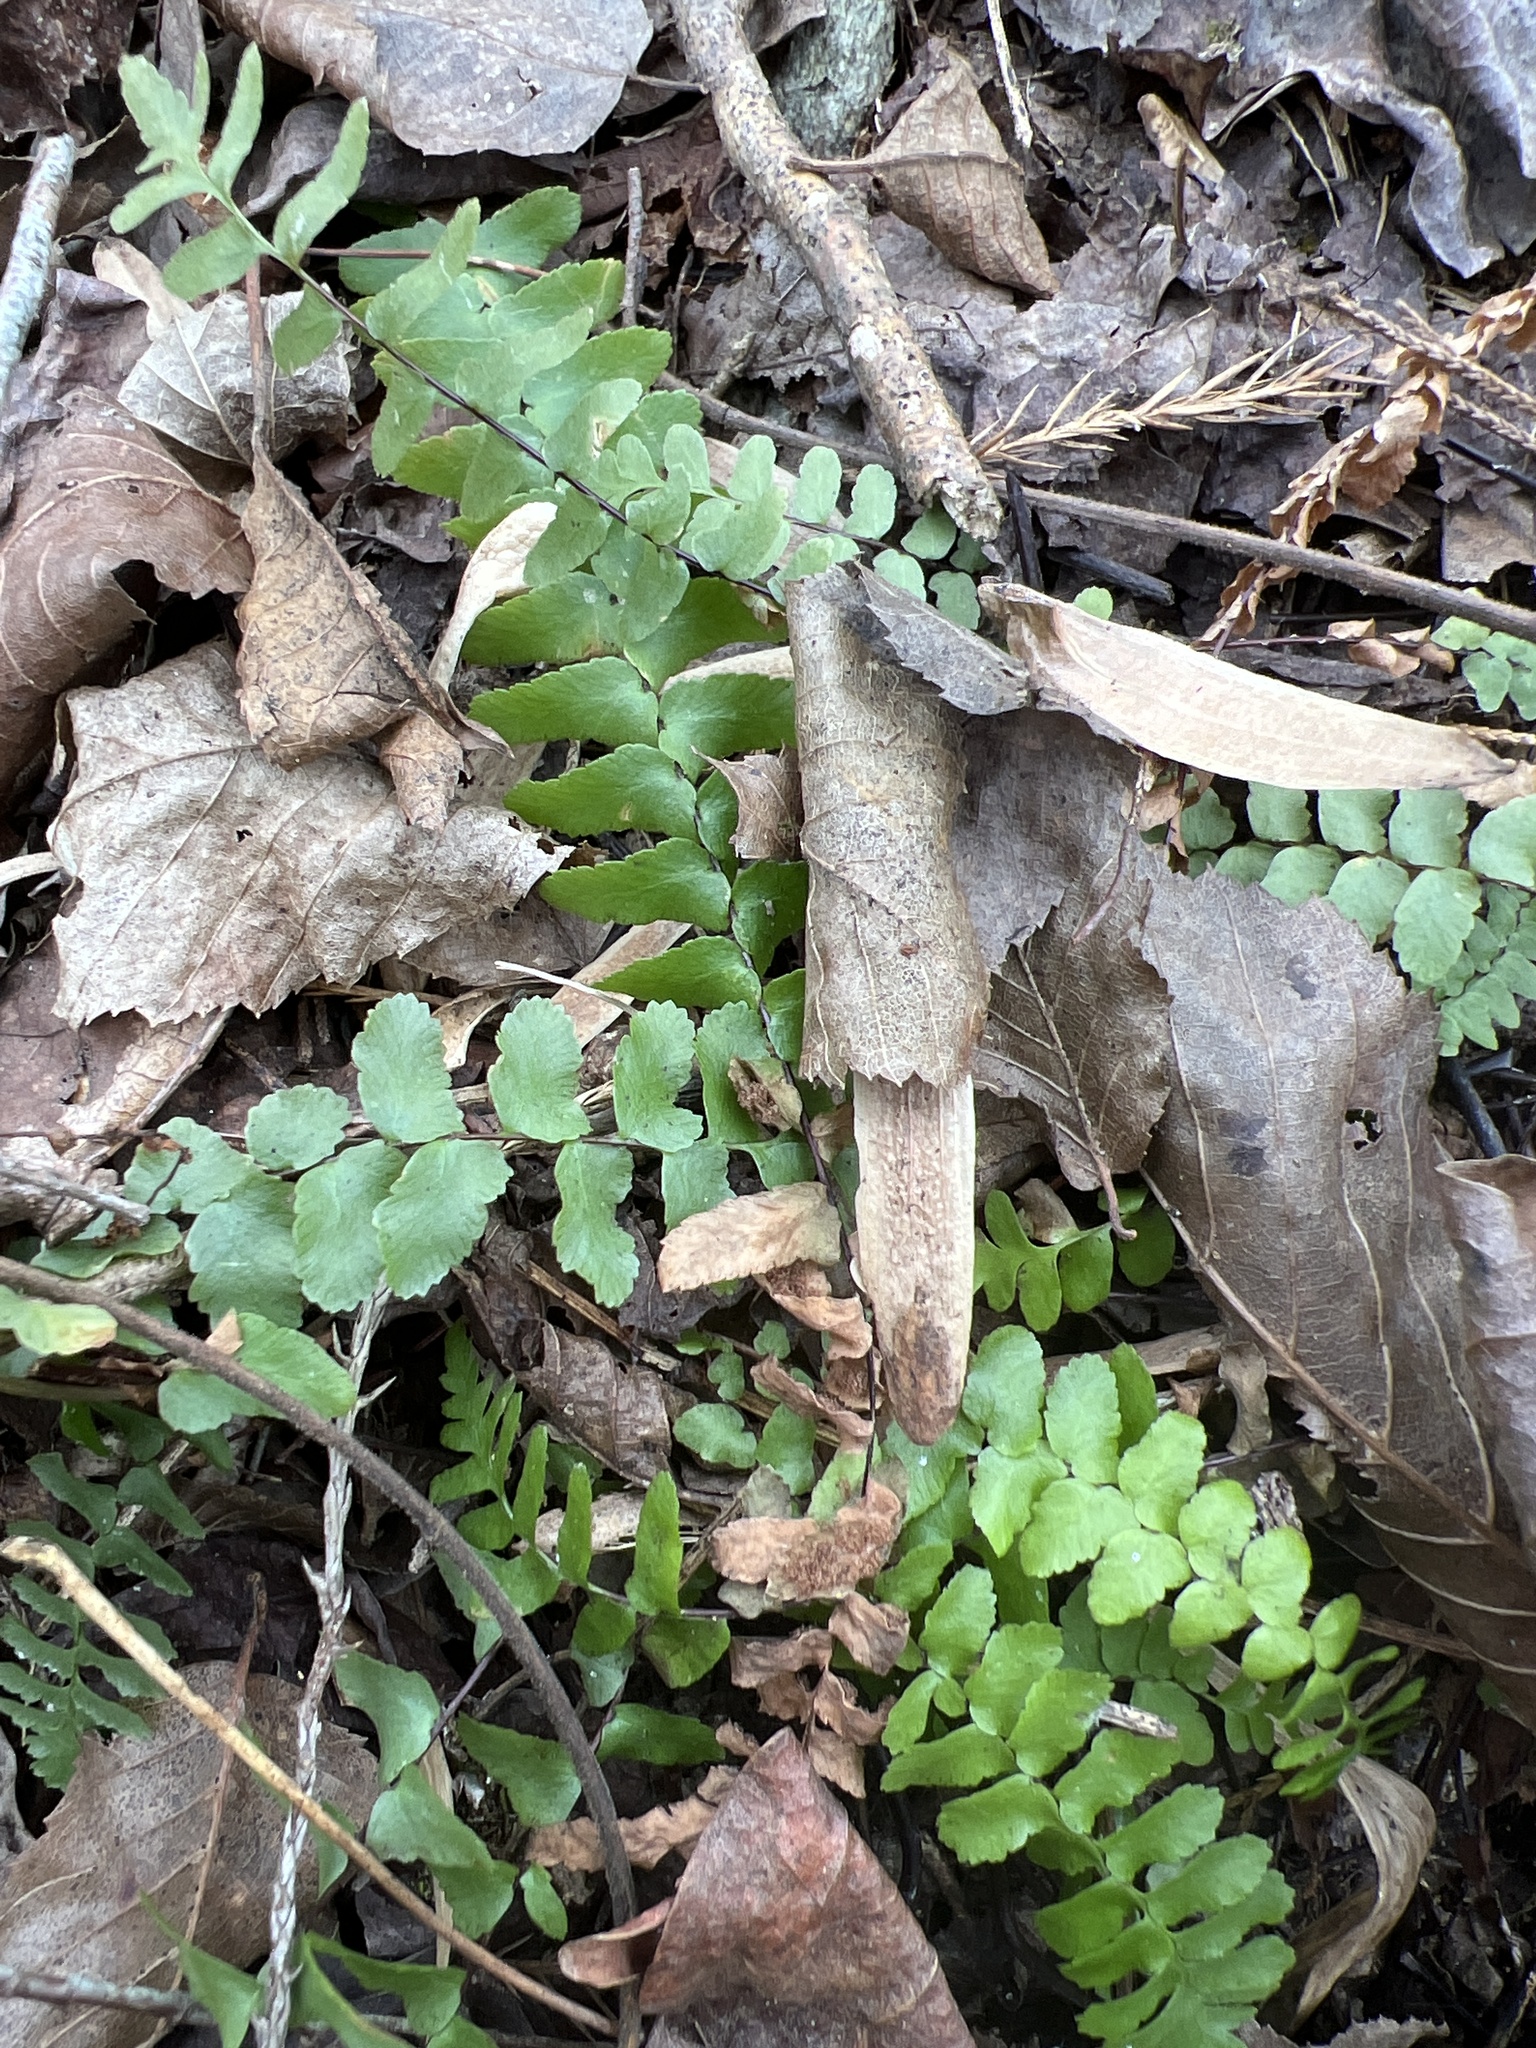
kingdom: Plantae
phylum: Tracheophyta
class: Polypodiopsida
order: Polypodiales
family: Aspleniaceae
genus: Asplenium
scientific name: Asplenium platyneuron
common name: Ebony spleenwort
